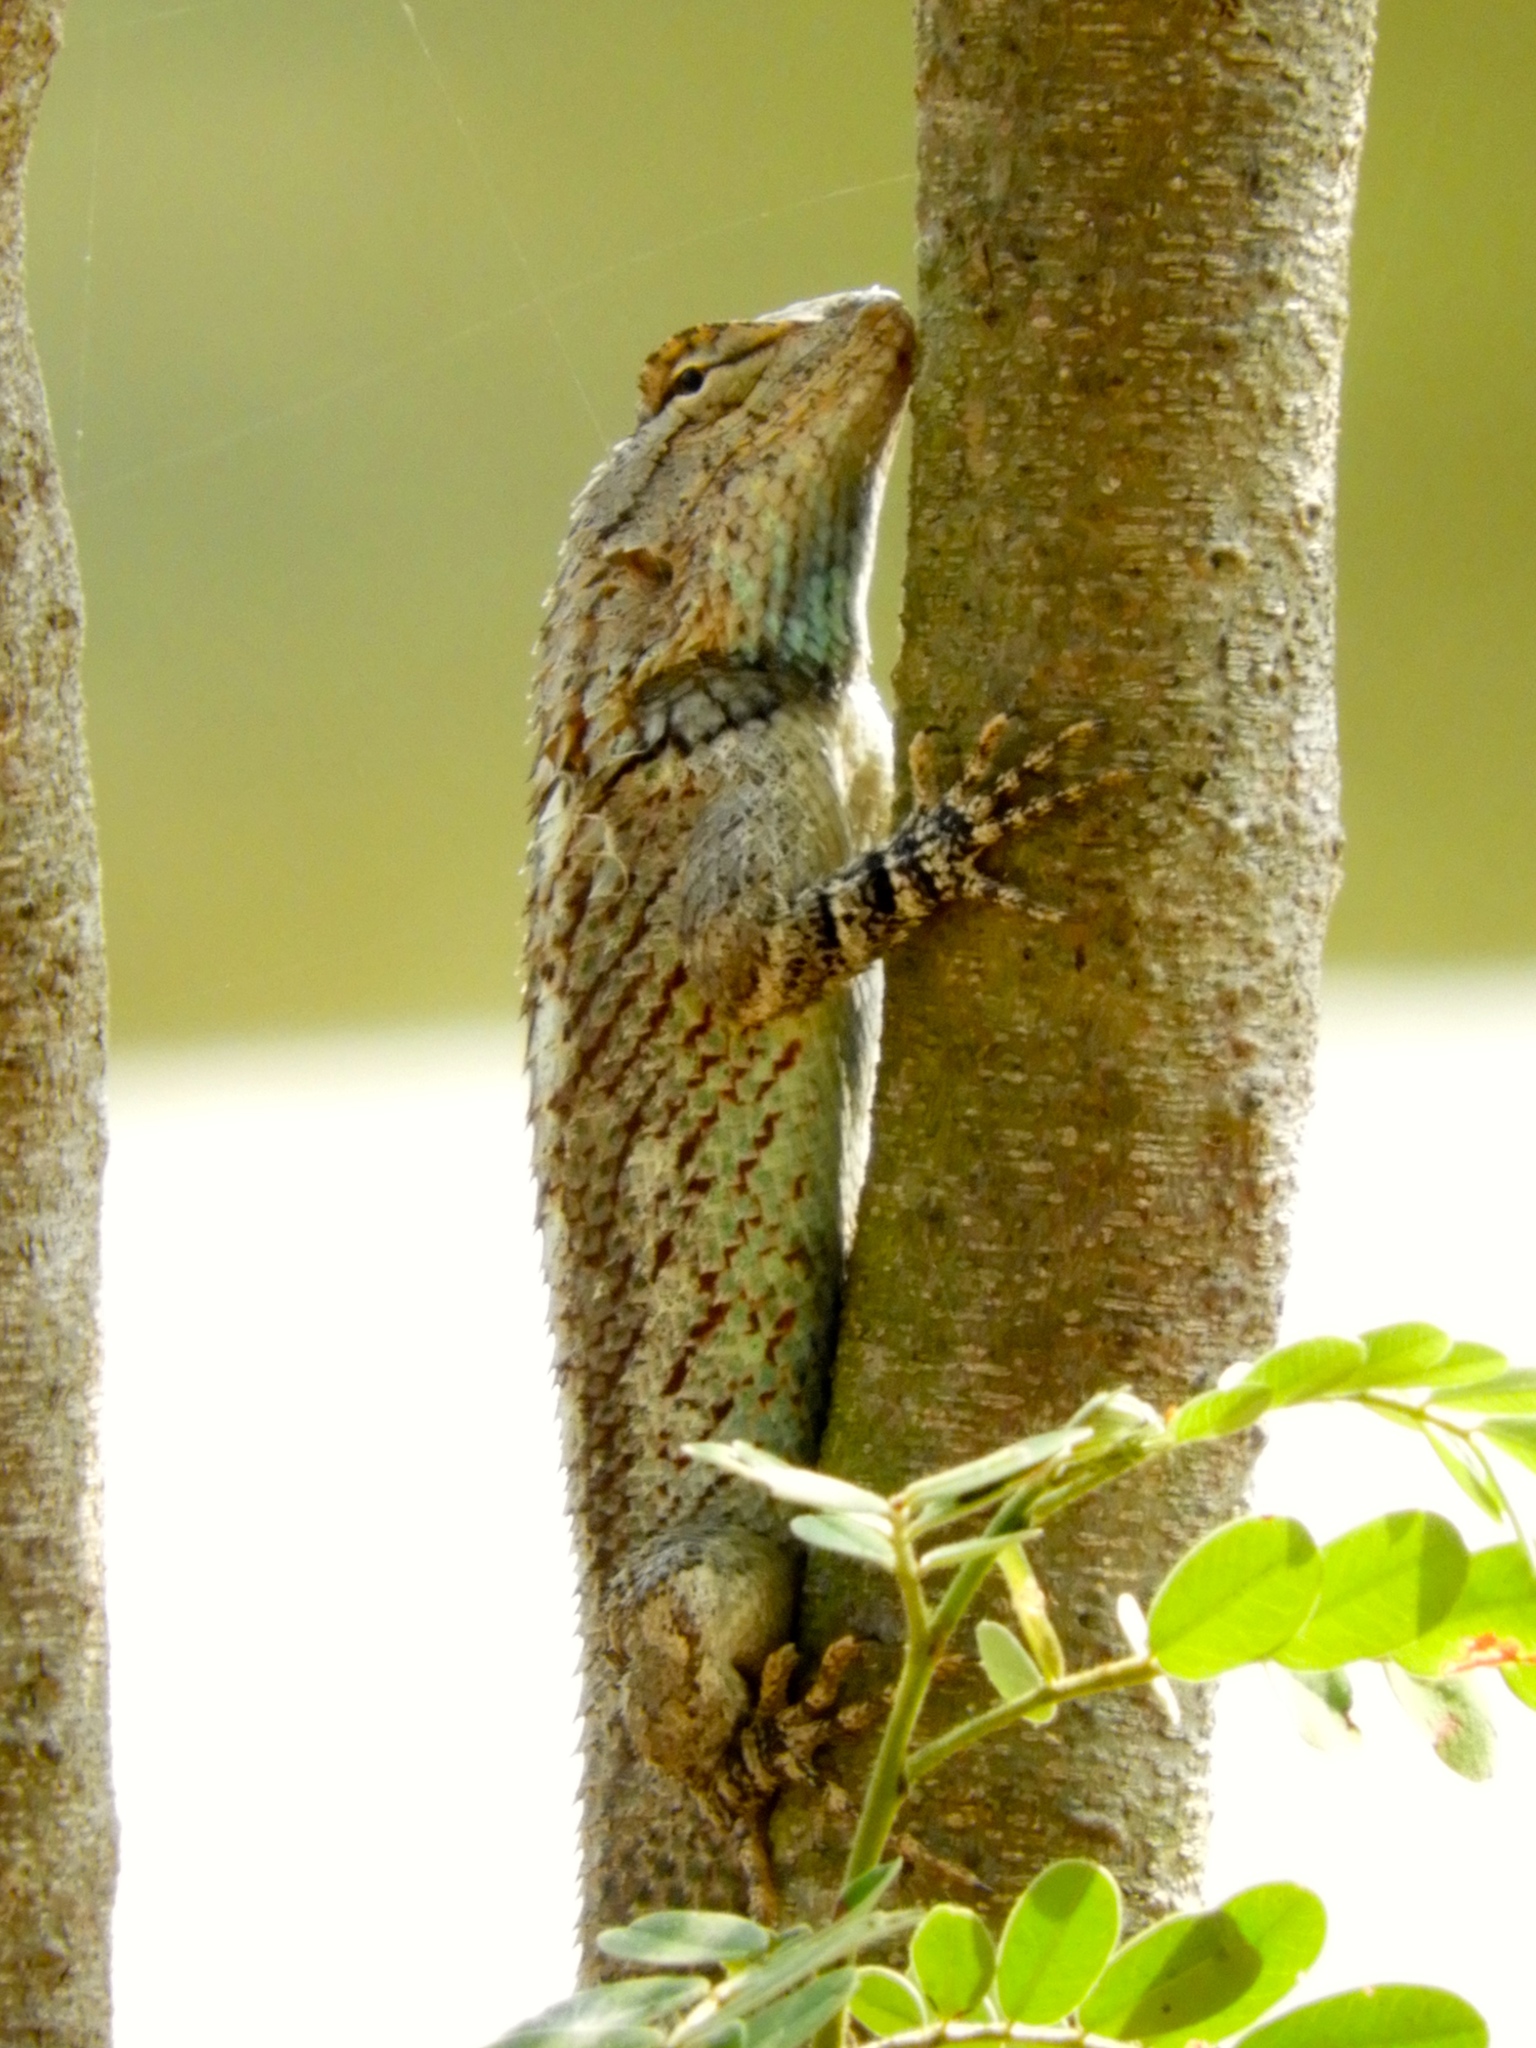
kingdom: Animalia
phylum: Chordata
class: Squamata
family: Phrynosomatidae
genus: Sceloporus
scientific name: Sceloporus clarkii
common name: Clark's spiny lizard
